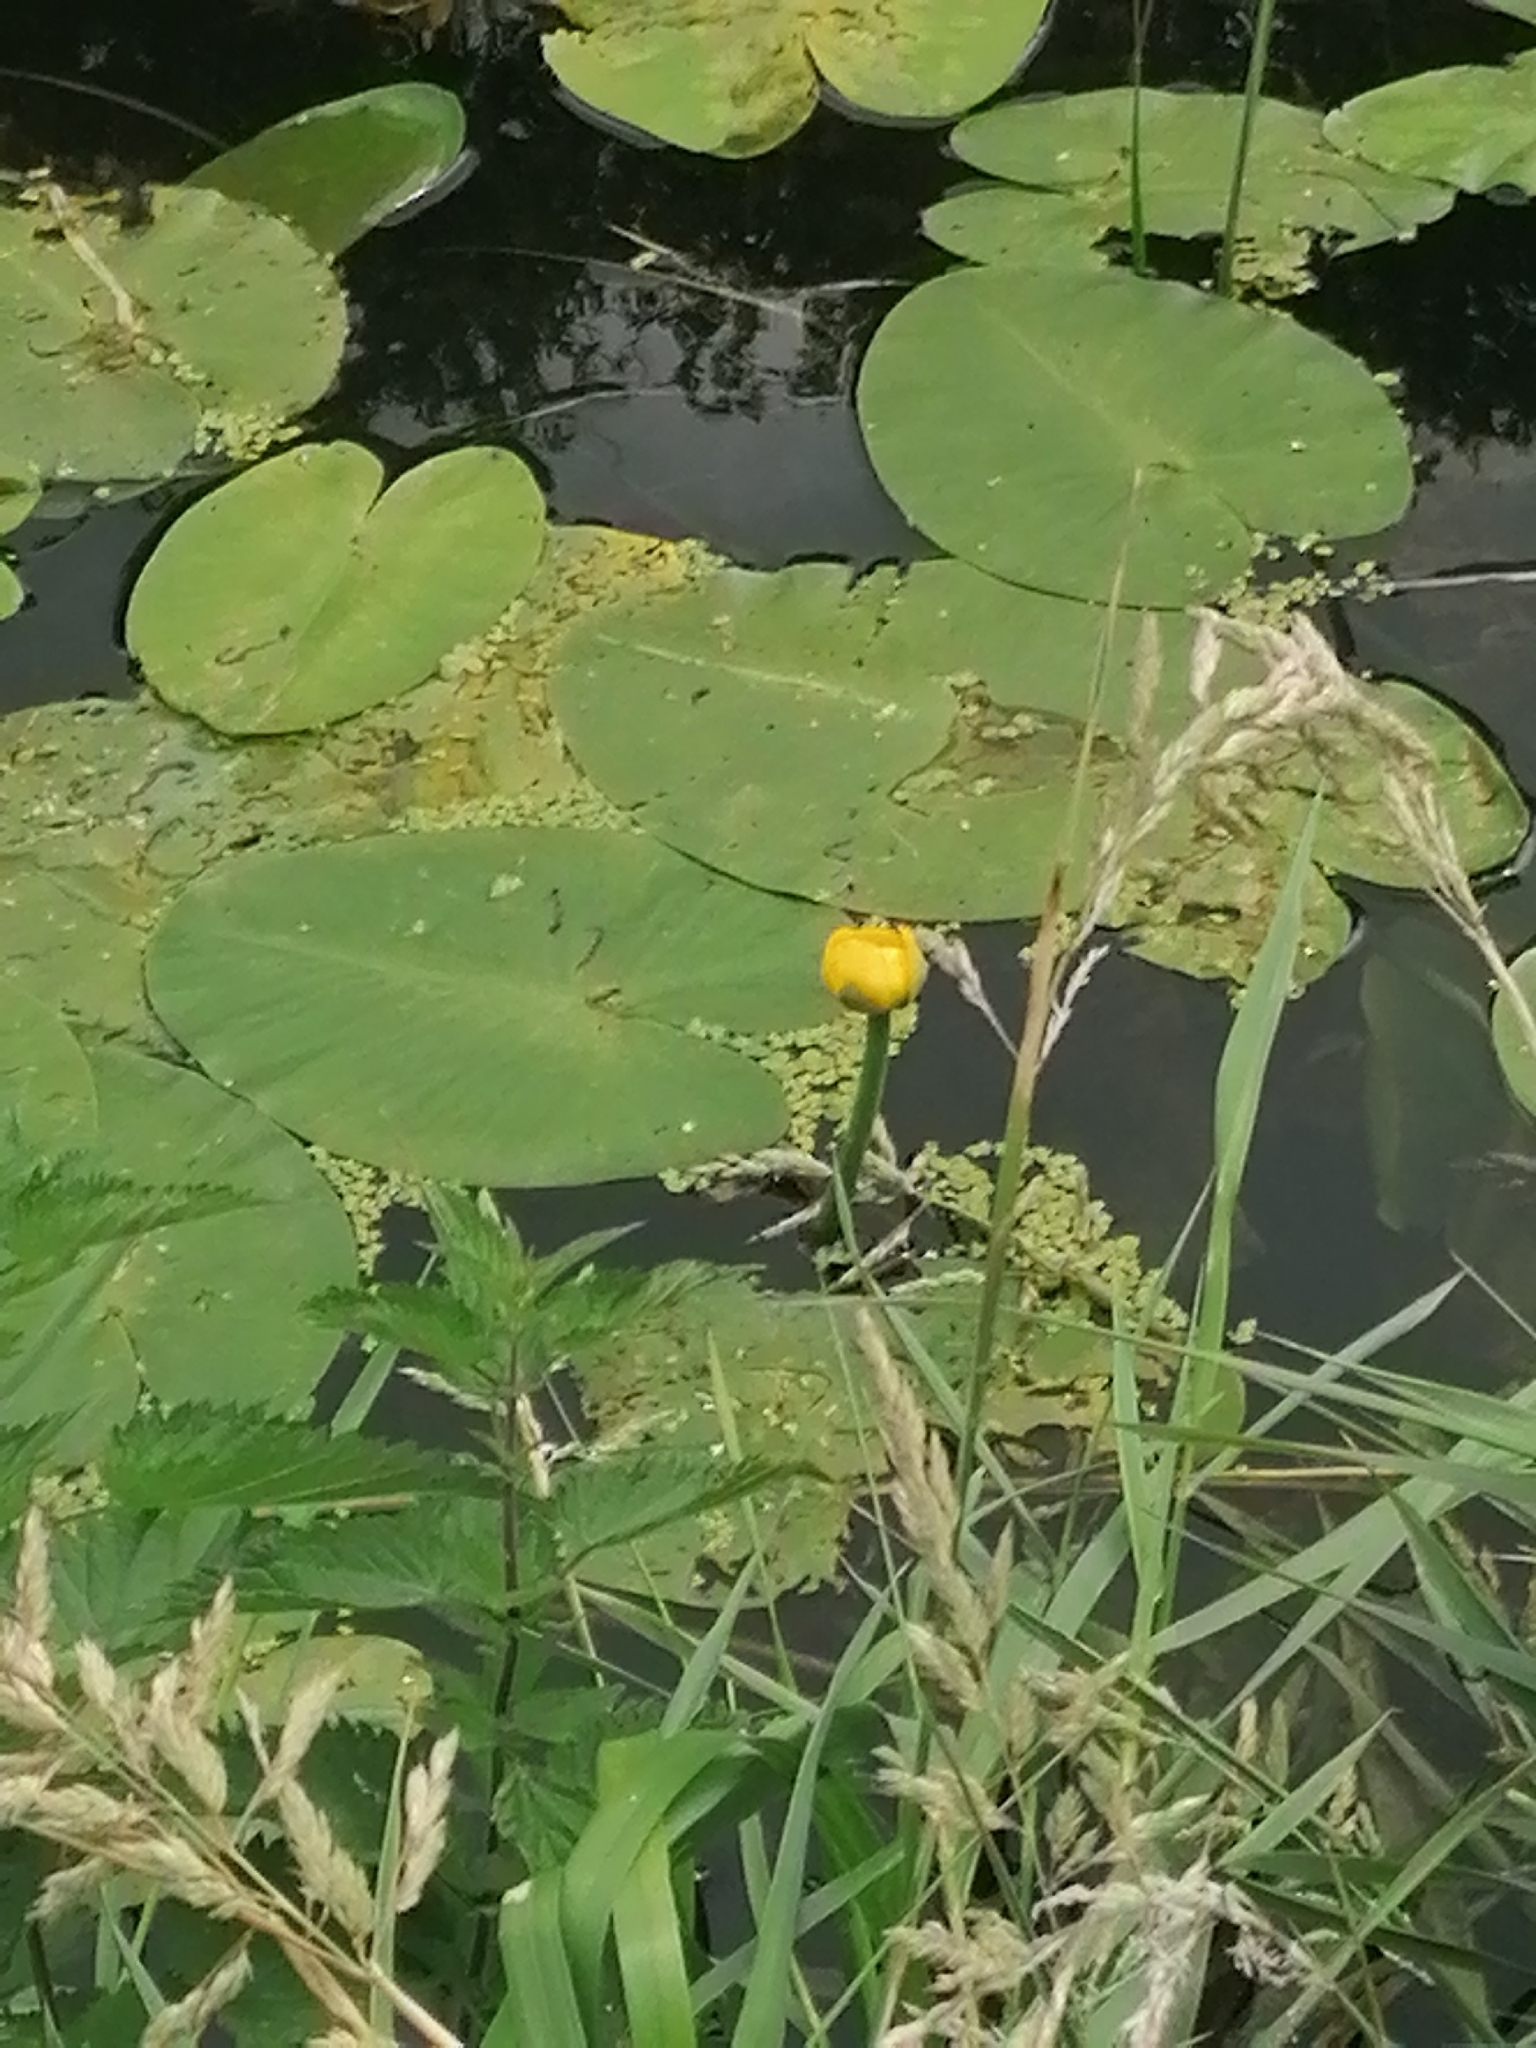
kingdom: Plantae
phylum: Tracheophyta
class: Magnoliopsida
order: Nymphaeales
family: Nymphaeaceae
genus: Nuphar
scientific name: Nuphar lutea
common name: Yellow water-lily
